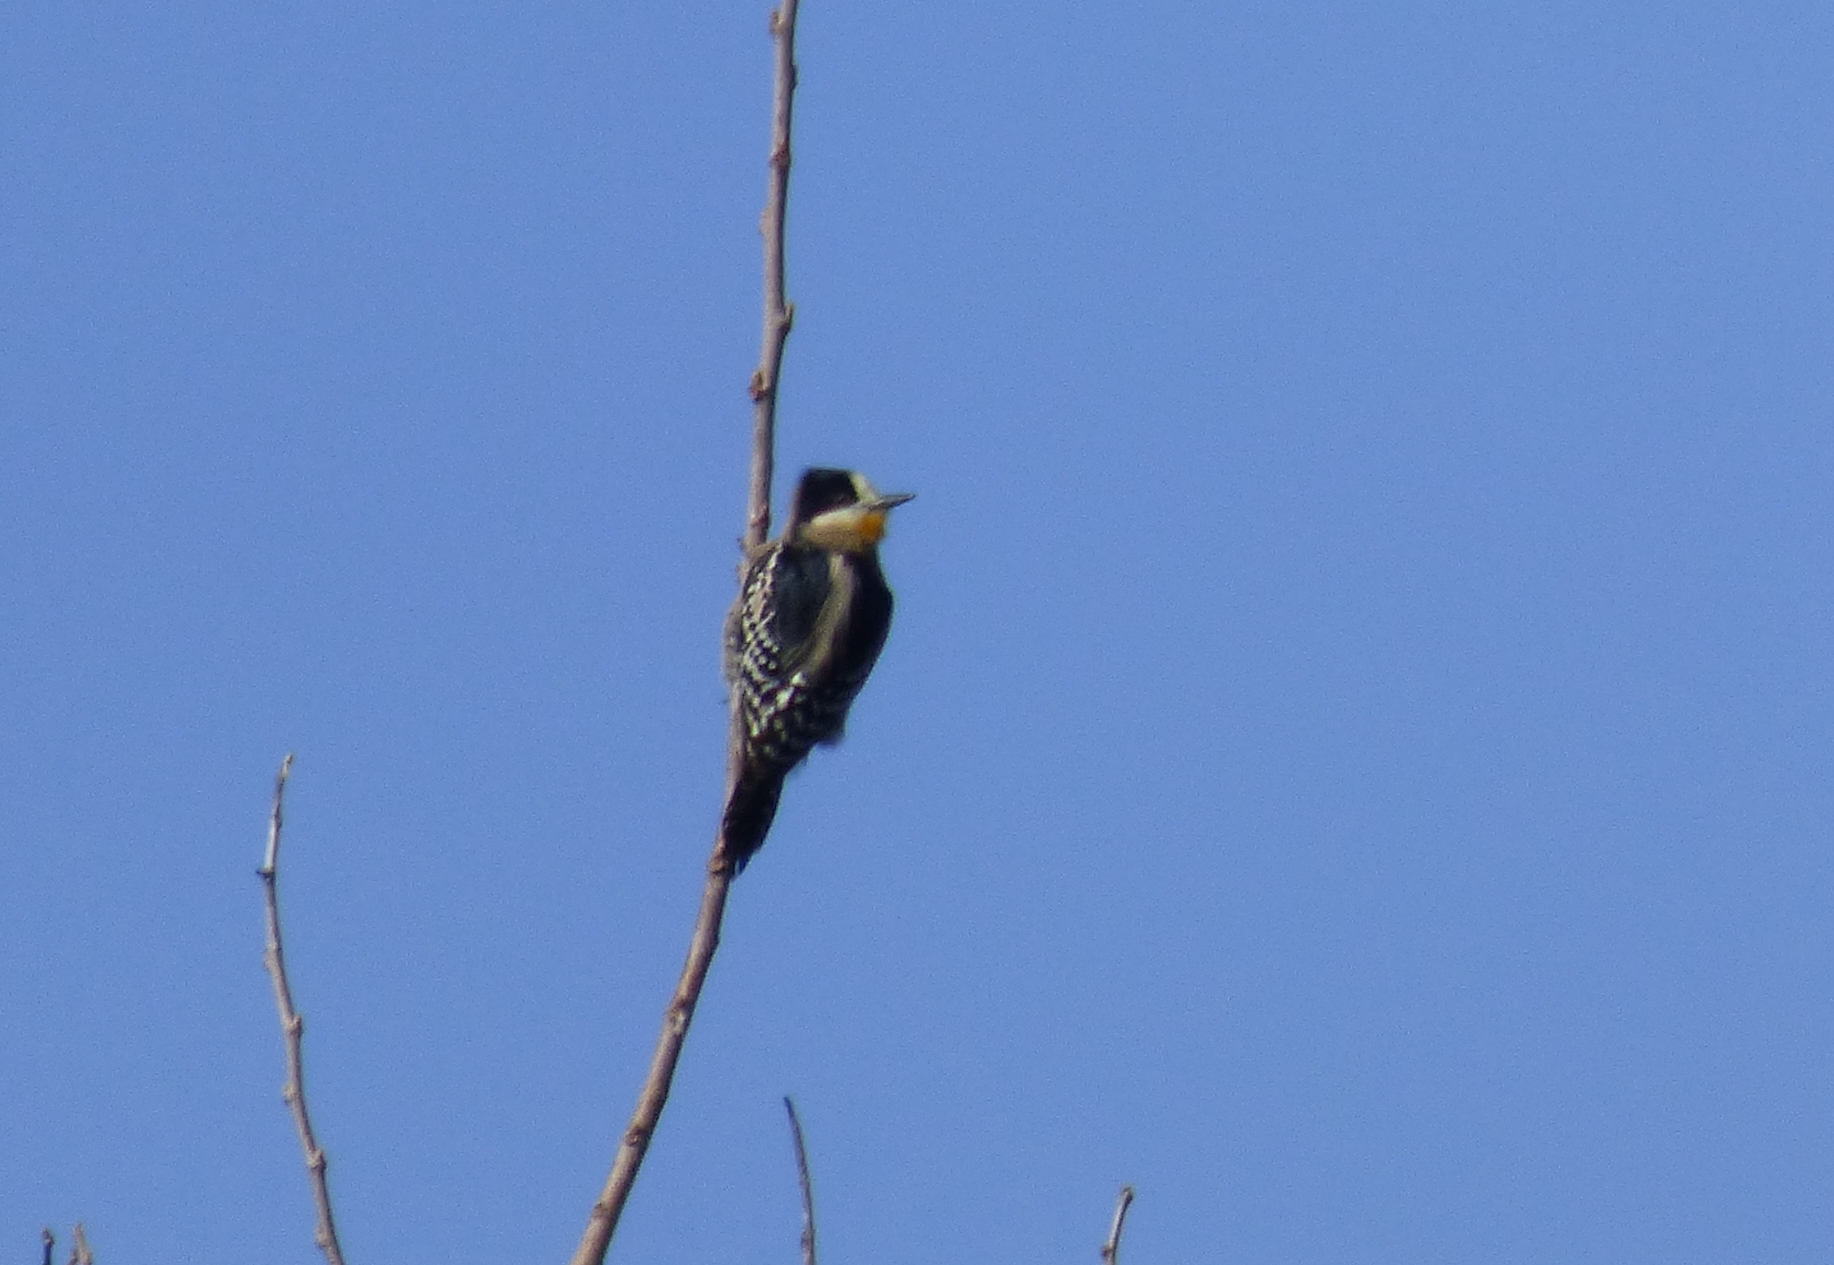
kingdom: Animalia
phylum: Chordata
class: Aves
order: Piciformes
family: Picidae
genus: Melanerpes
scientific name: Melanerpes cactorum
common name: White-fronted woodpecker
